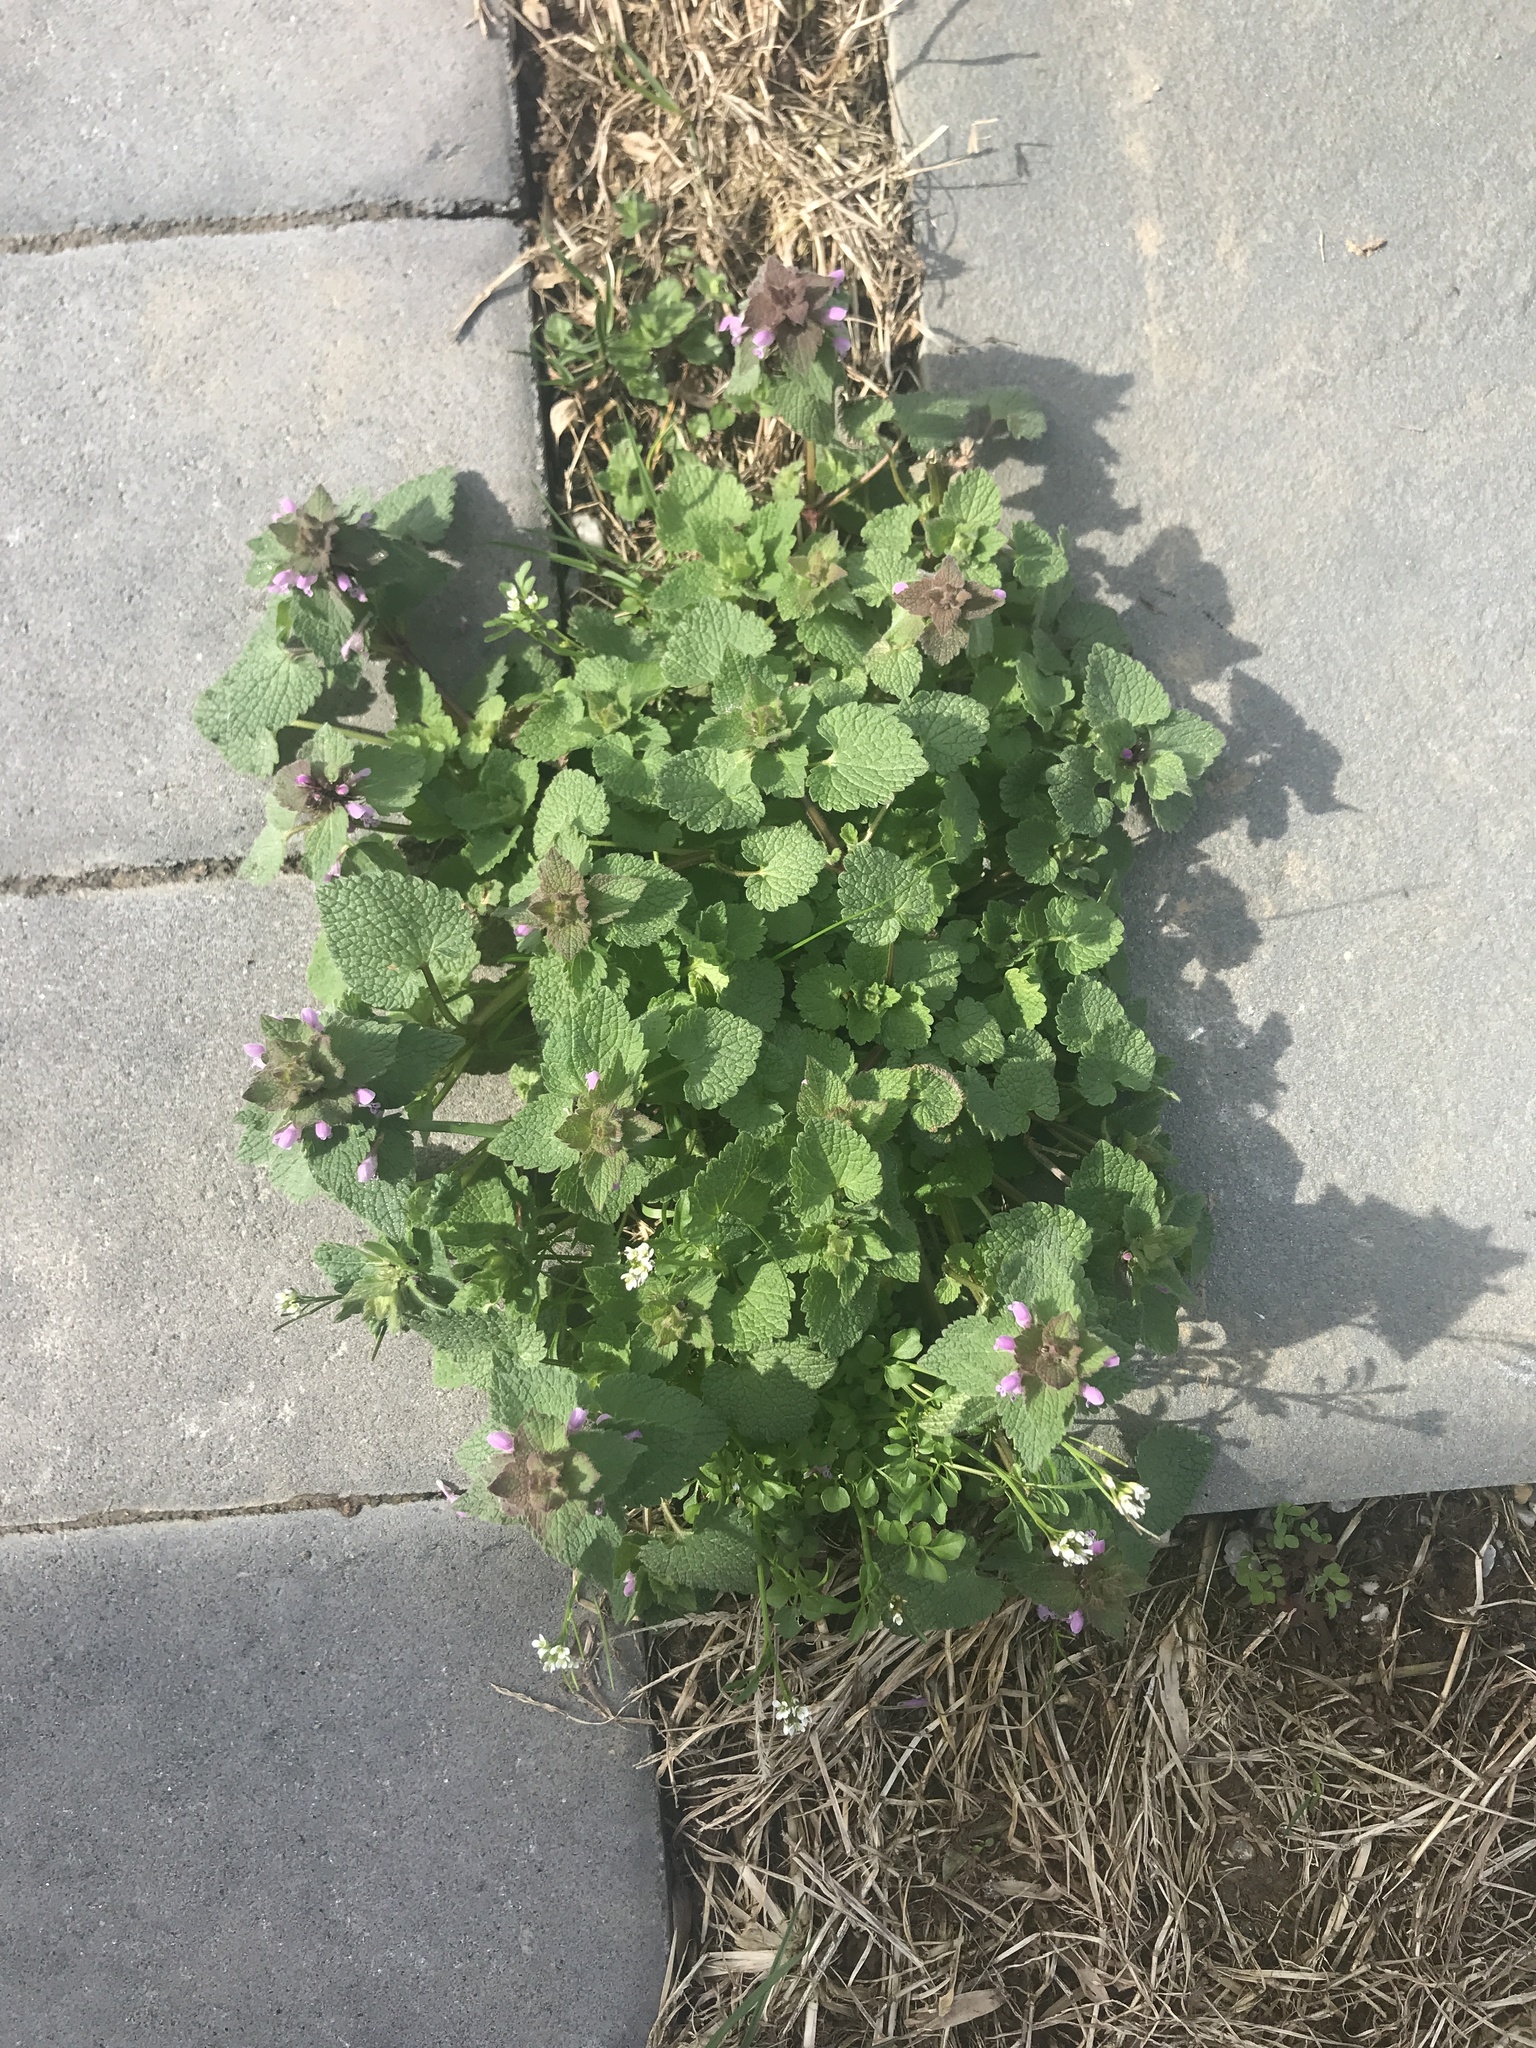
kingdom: Plantae
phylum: Tracheophyta
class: Magnoliopsida
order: Lamiales
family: Lamiaceae
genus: Lamium
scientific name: Lamium purpureum
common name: Red dead-nettle
